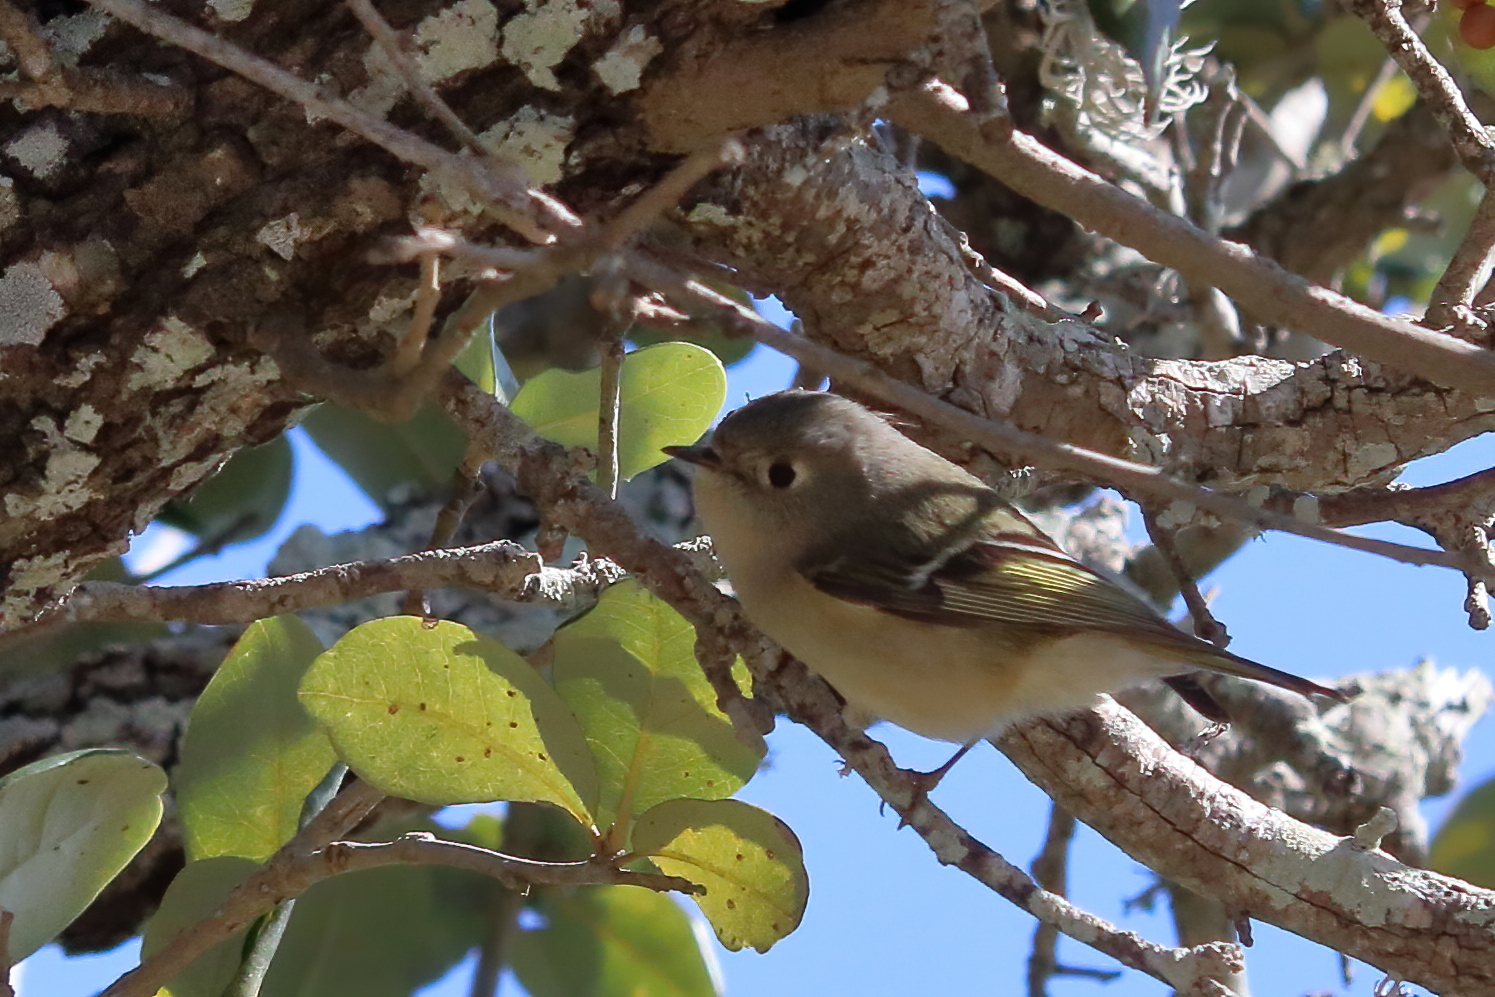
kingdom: Animalia
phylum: Chordata
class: Aves
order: Passeriformes
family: Regulidae
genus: Regulus
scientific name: Regulus calendula
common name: Ruby-crowned kinglet
